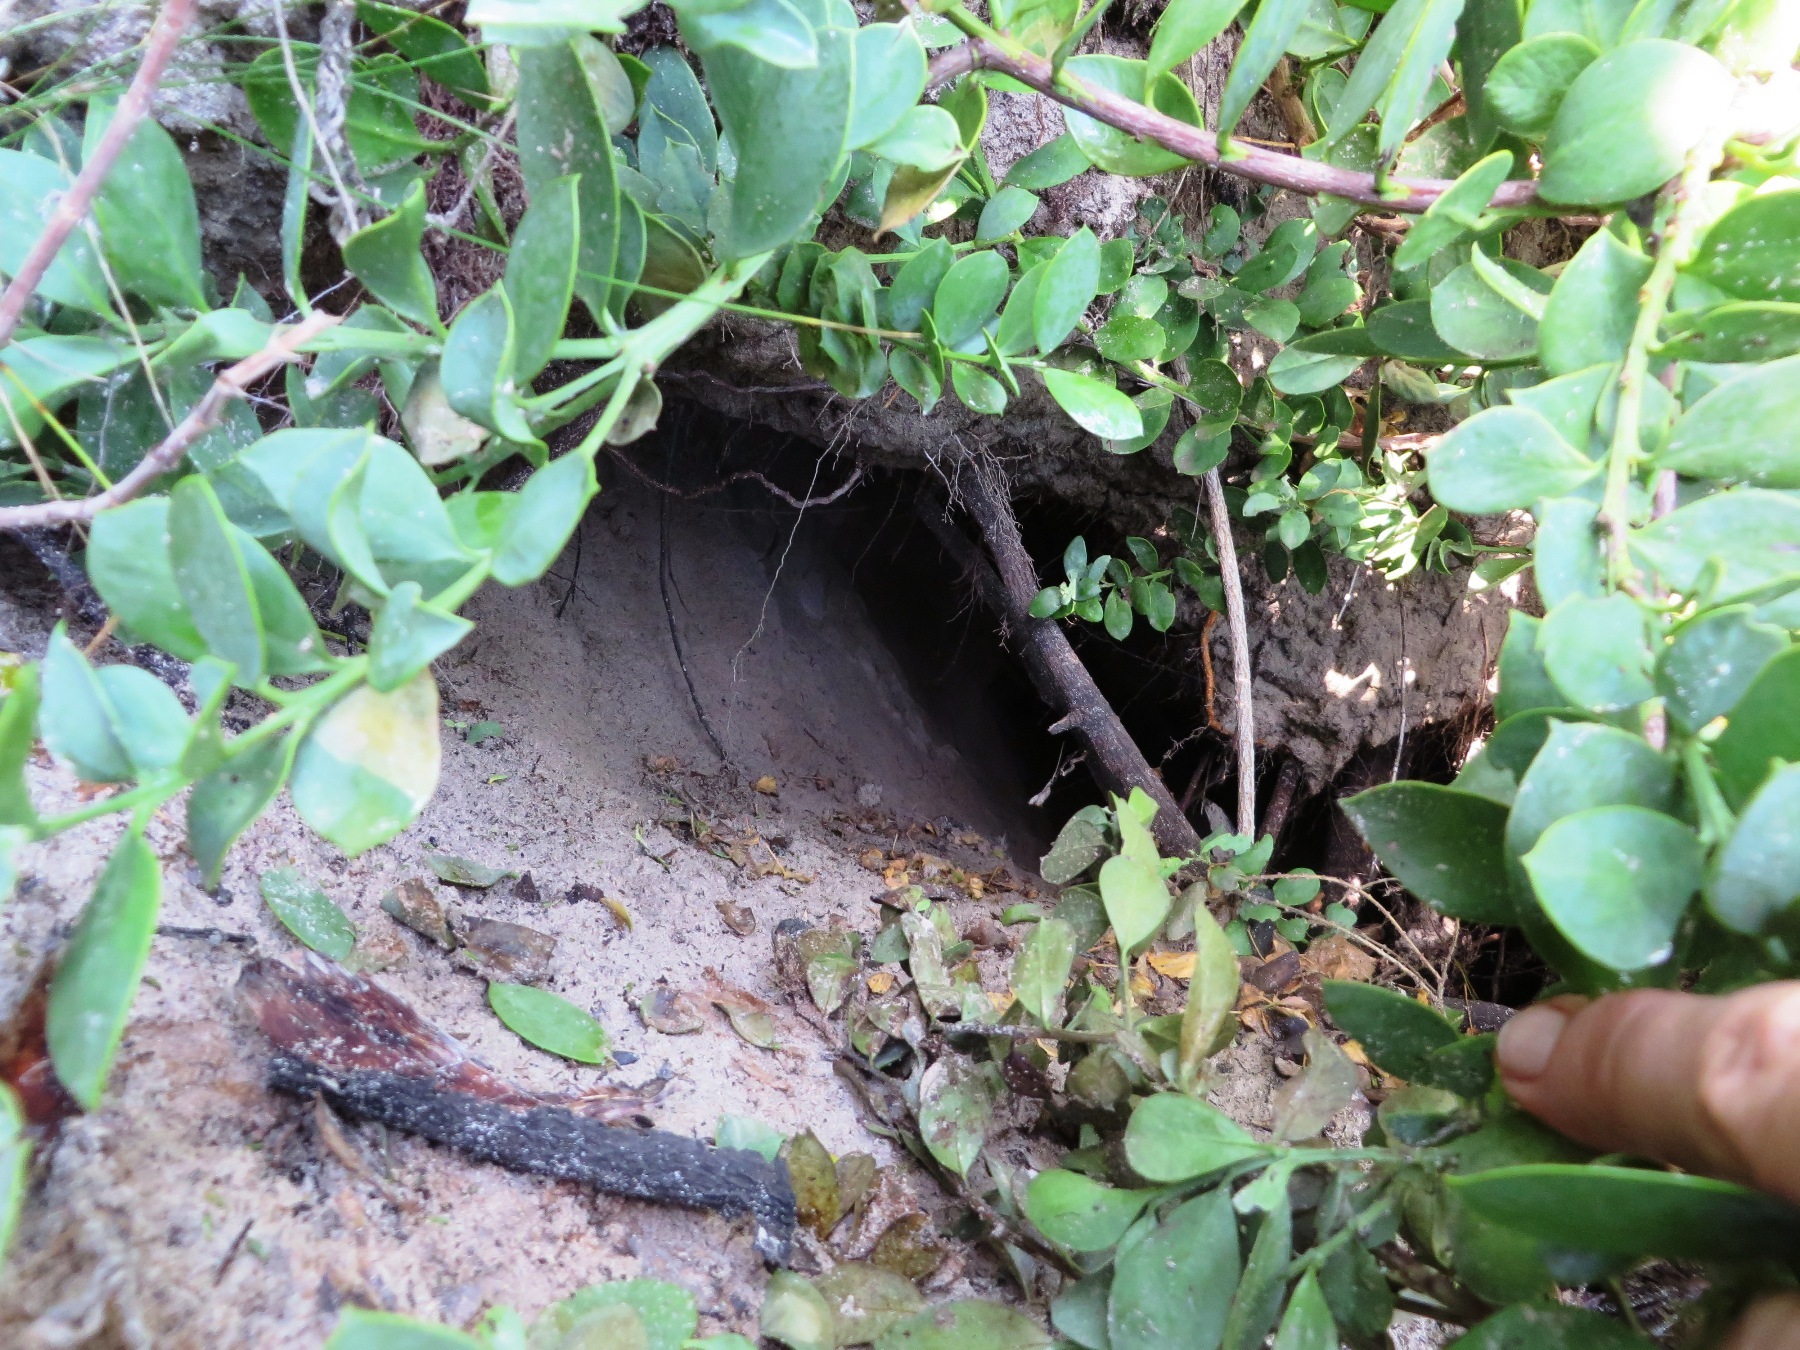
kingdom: Animalia
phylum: Chordata
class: Mammalia
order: Carnivora
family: Mustelidae
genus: Aonyx
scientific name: Aonyx capensis
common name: African clawless otter
